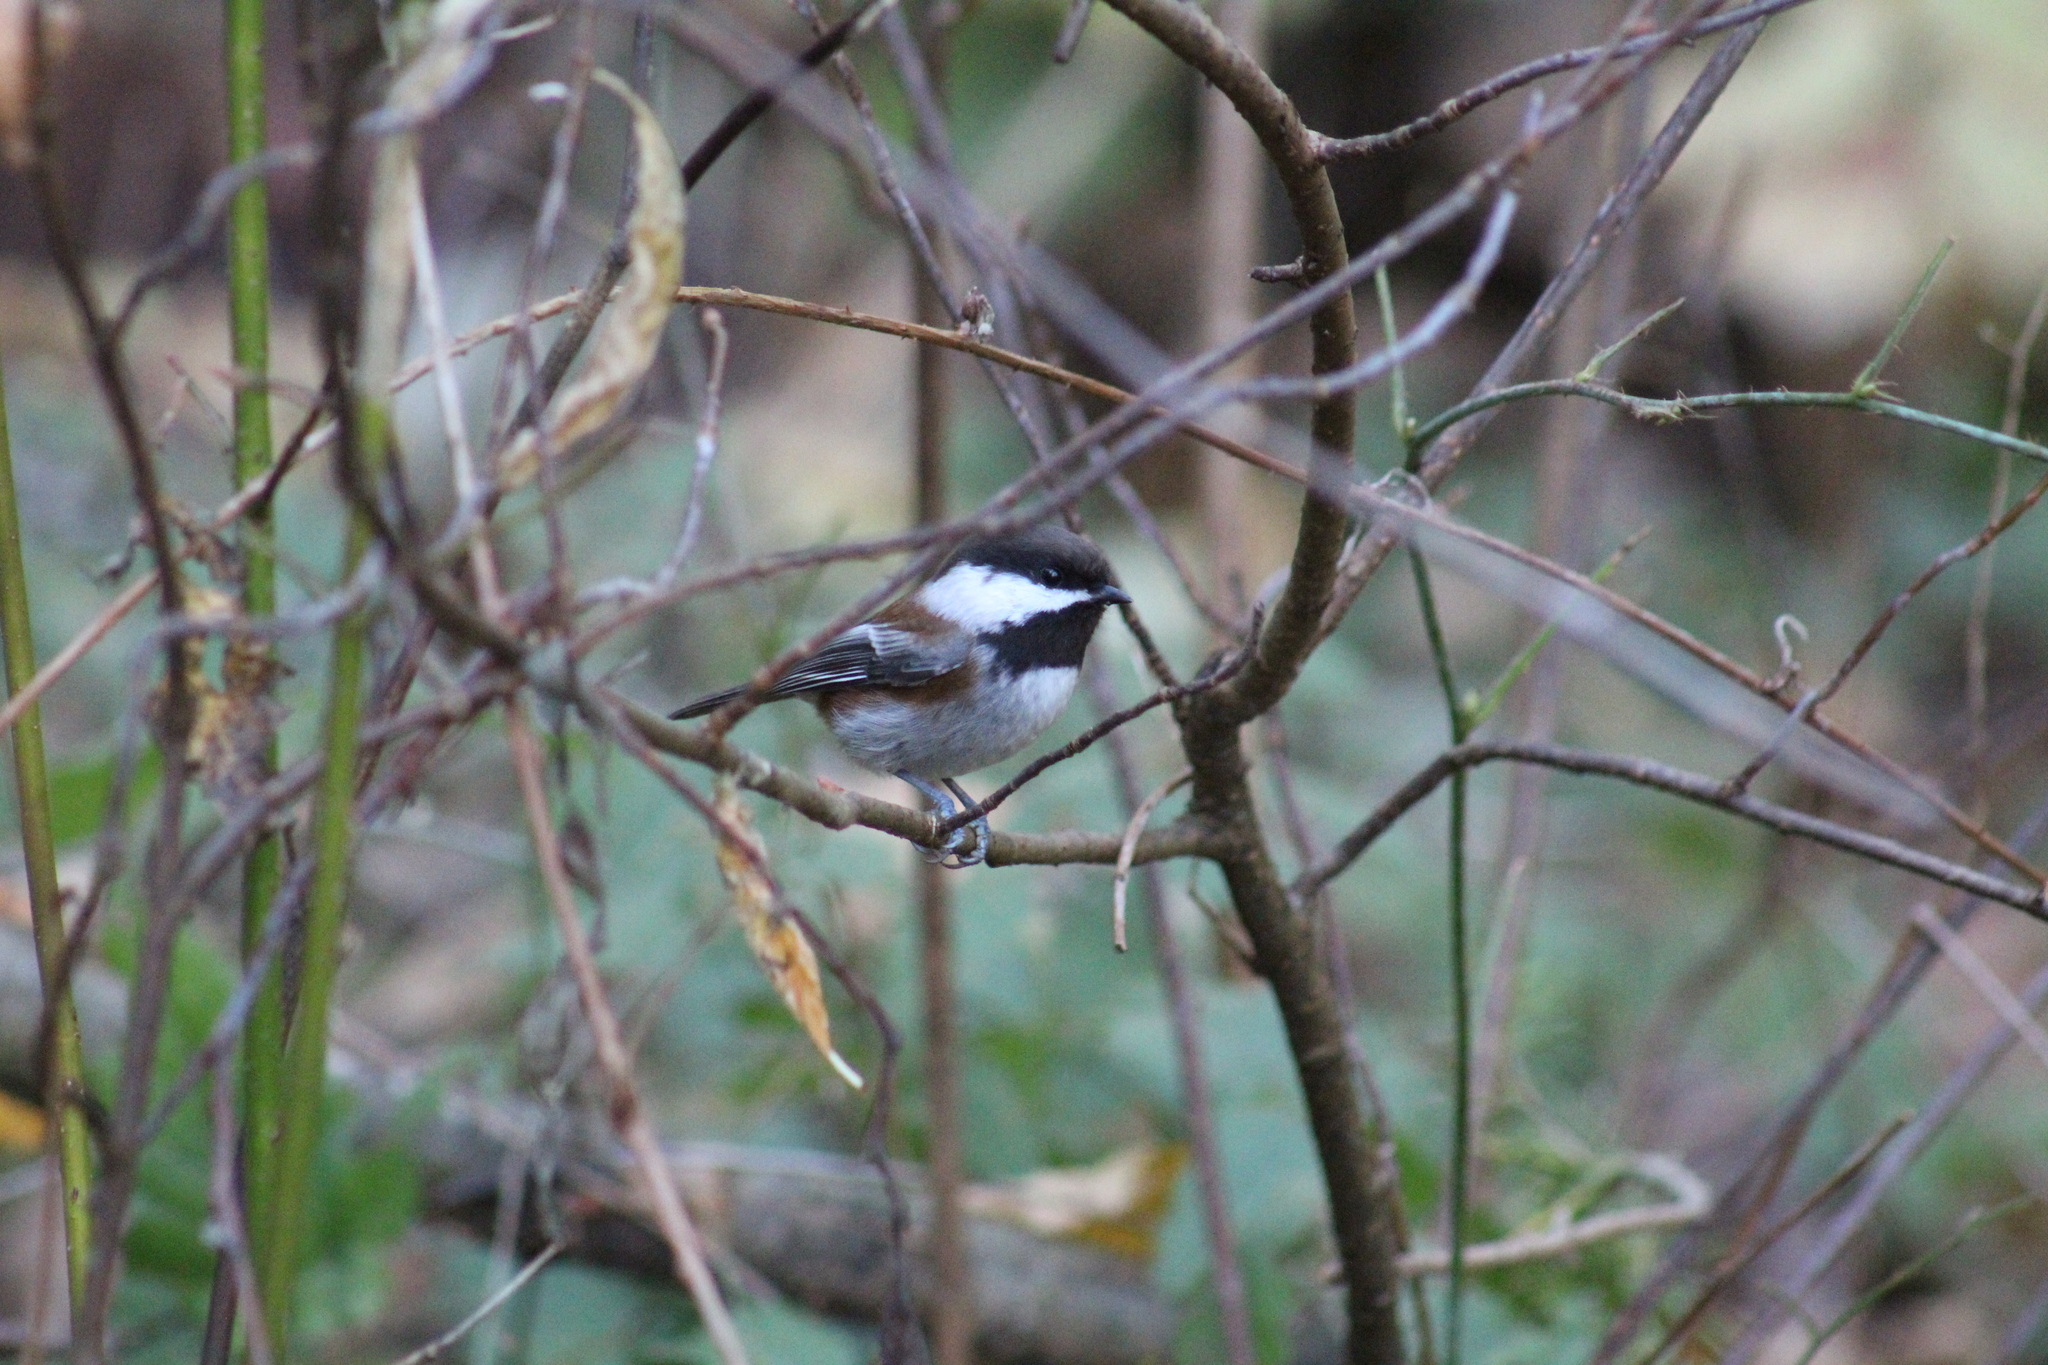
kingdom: Animalia
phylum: Chordata
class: Aves
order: Passeriformes
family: Paridae
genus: Poecile
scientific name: Poecile rufescens
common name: Chestnut-backed chickadee
